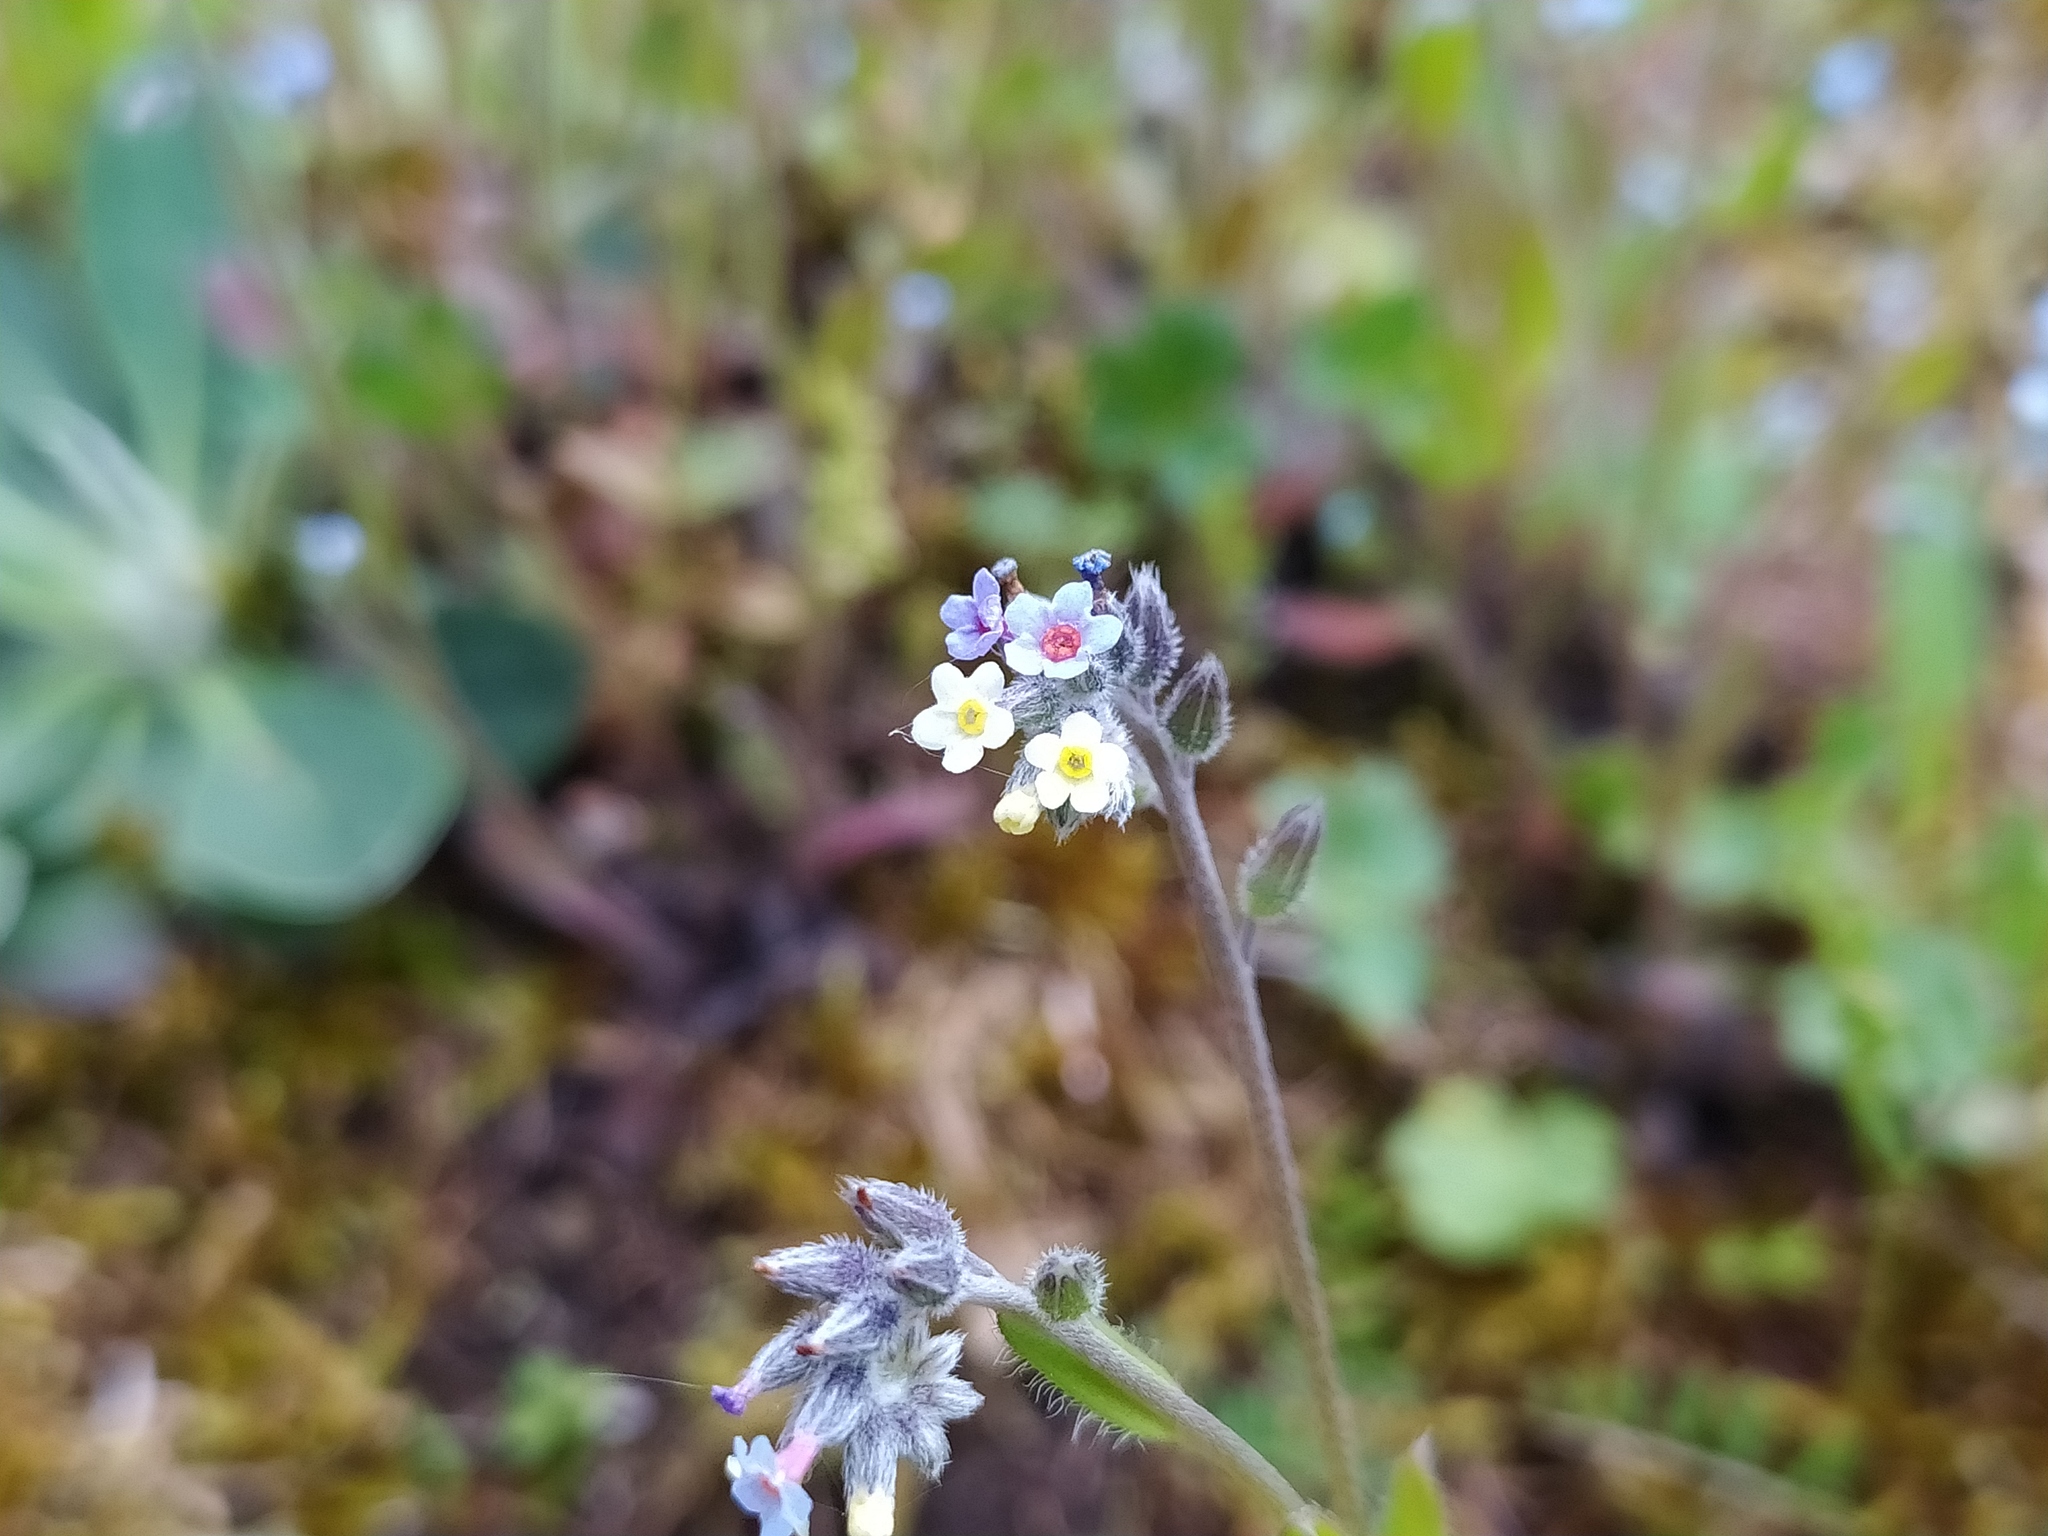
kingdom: Plantae
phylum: Tracheophyta
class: Magnoliopsida
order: Boraginales
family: Boraginaceae
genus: Myosotis
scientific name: Myosotis discolor
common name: Changing forget-me-not
